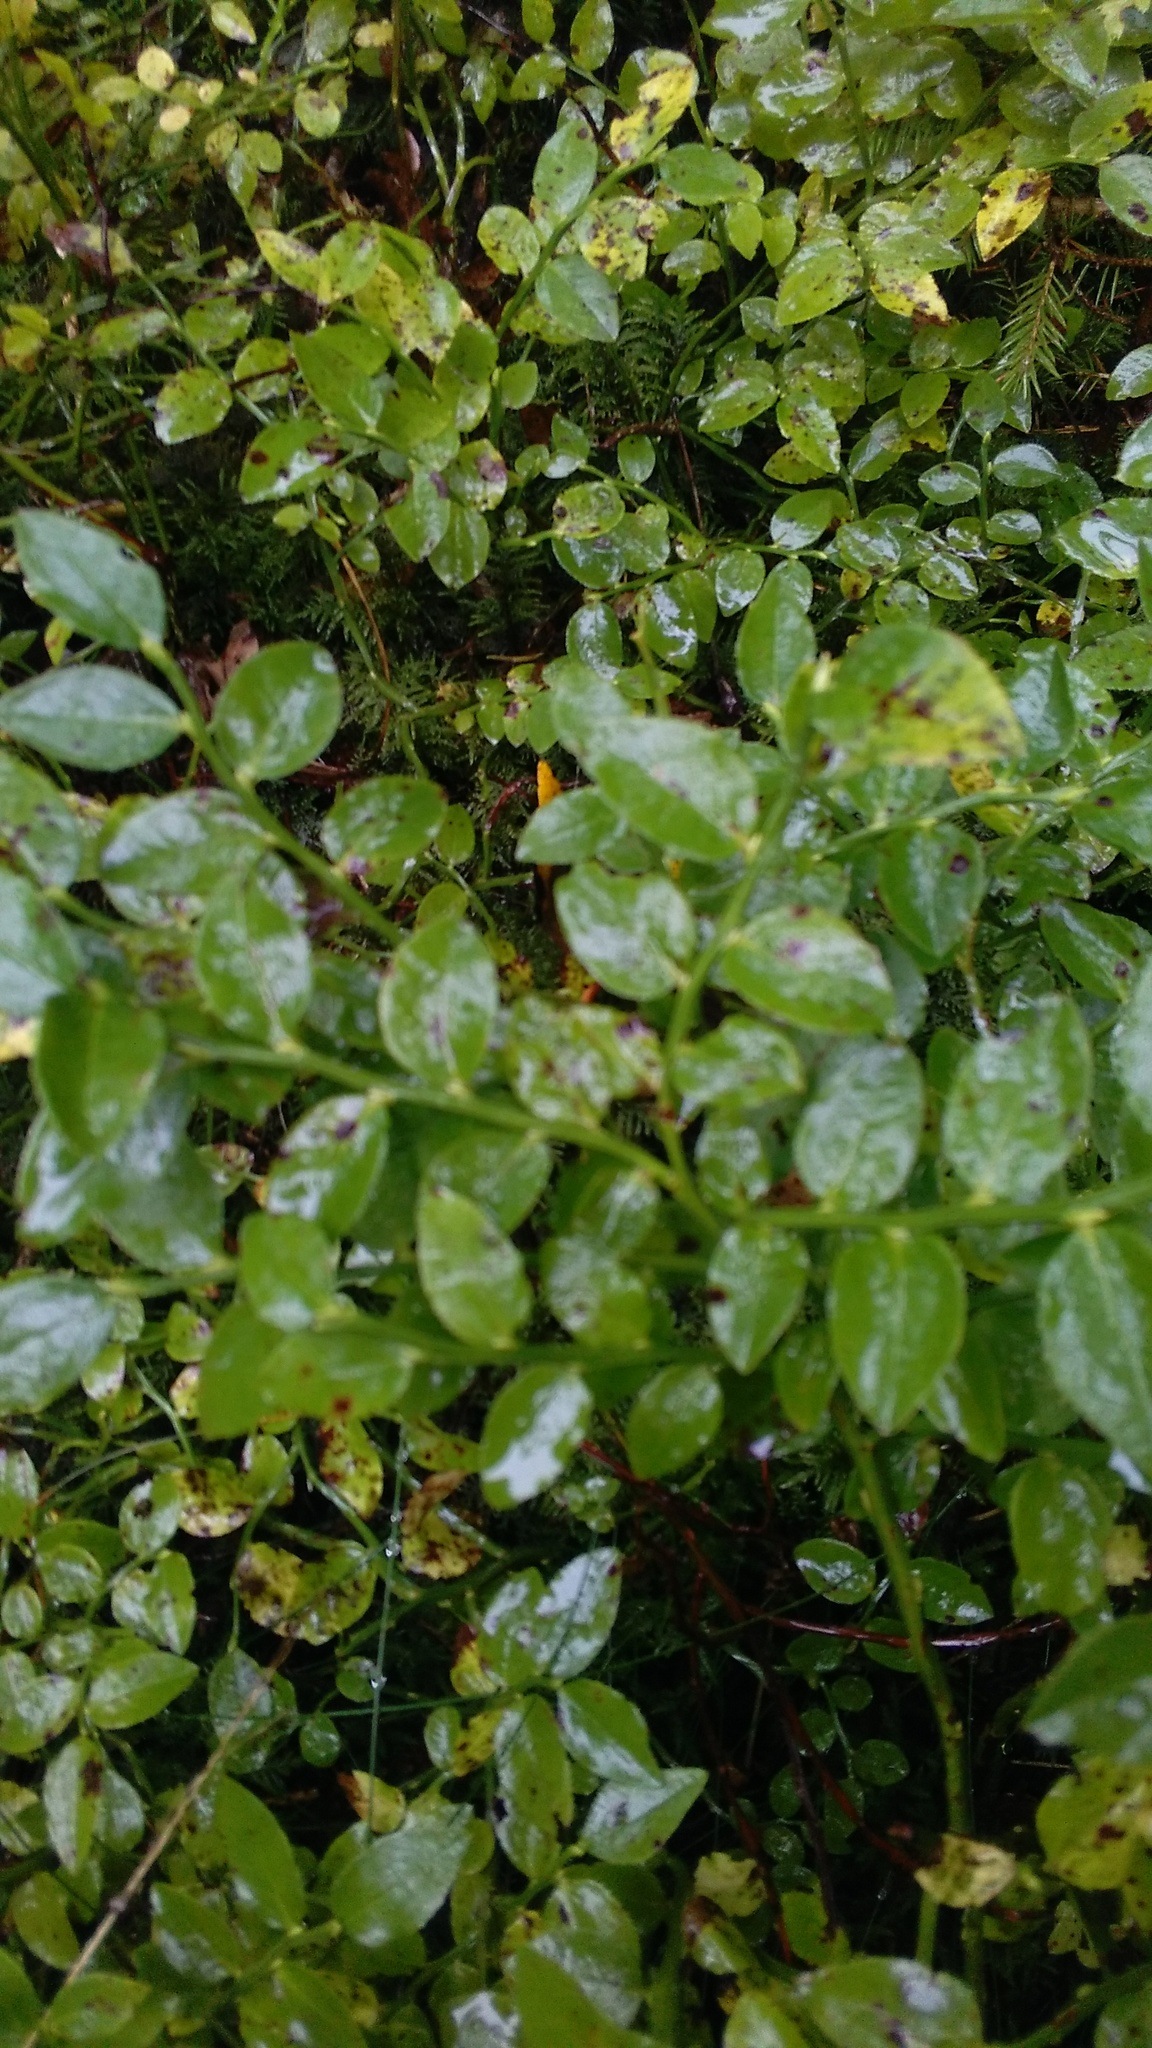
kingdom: Plantae
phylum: Tracheophyta
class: Magnoliopsida
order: Ericales
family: Ericaceae
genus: Vaccinium
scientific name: Vaccinium myrtillus
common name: Bilberry
